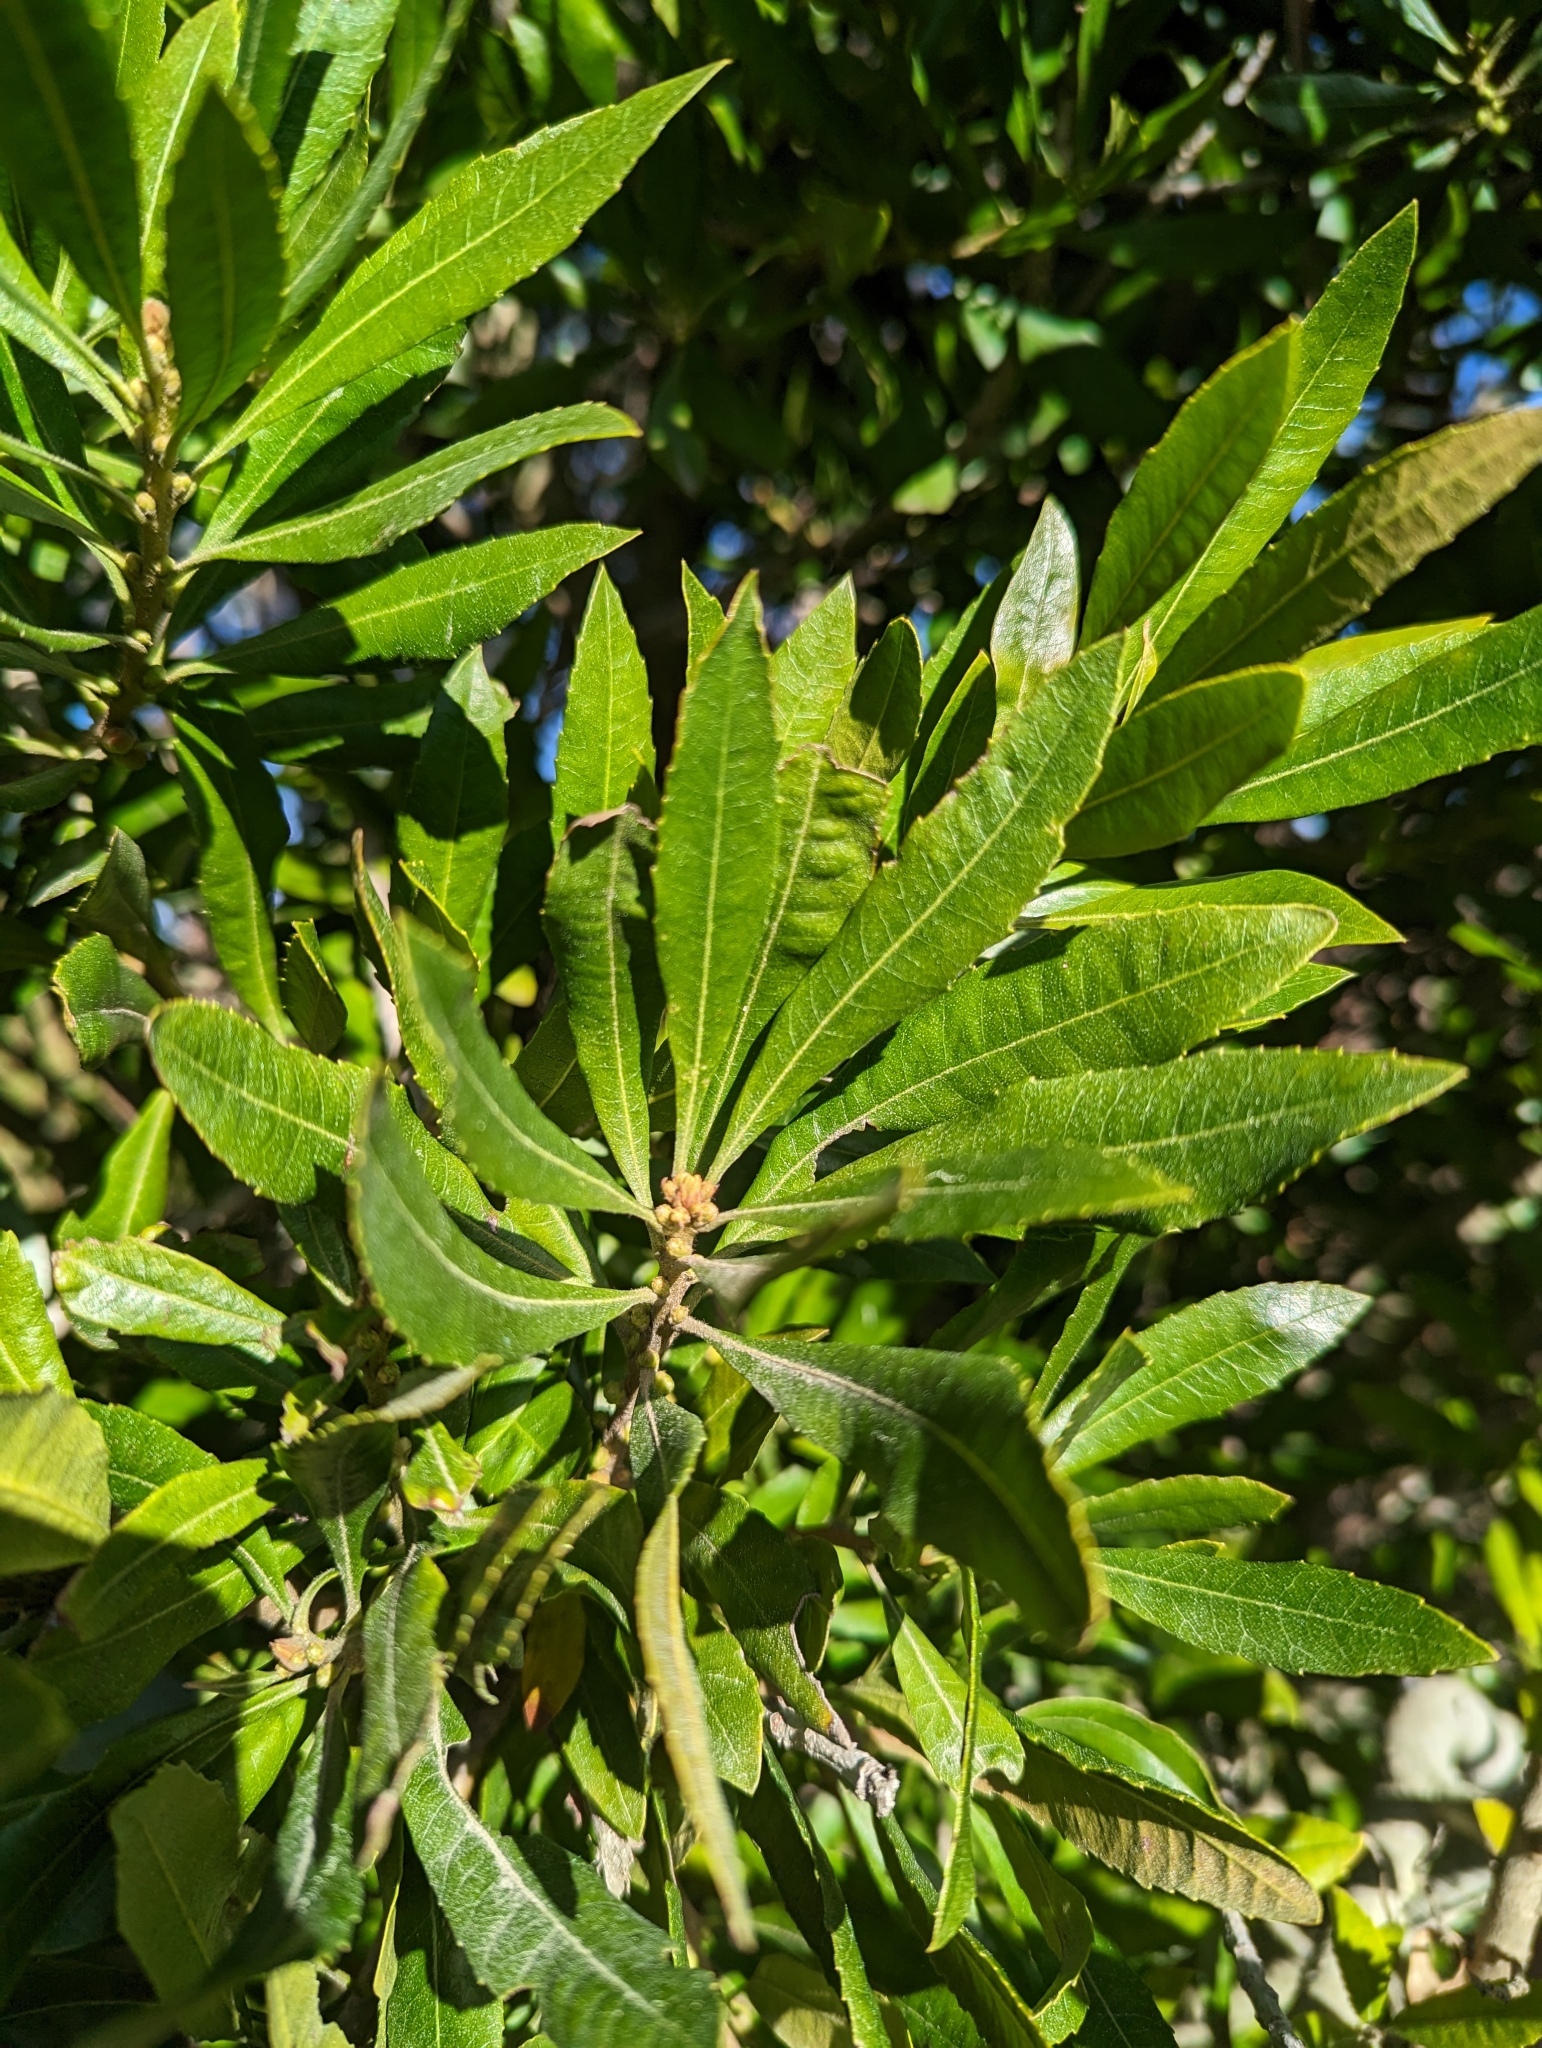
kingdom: Plantae
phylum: Tracheophyta
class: Magnoliopsida
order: Fagales
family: Myricaceae
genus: Morella
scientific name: Morella californica
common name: California wax-myrtle
